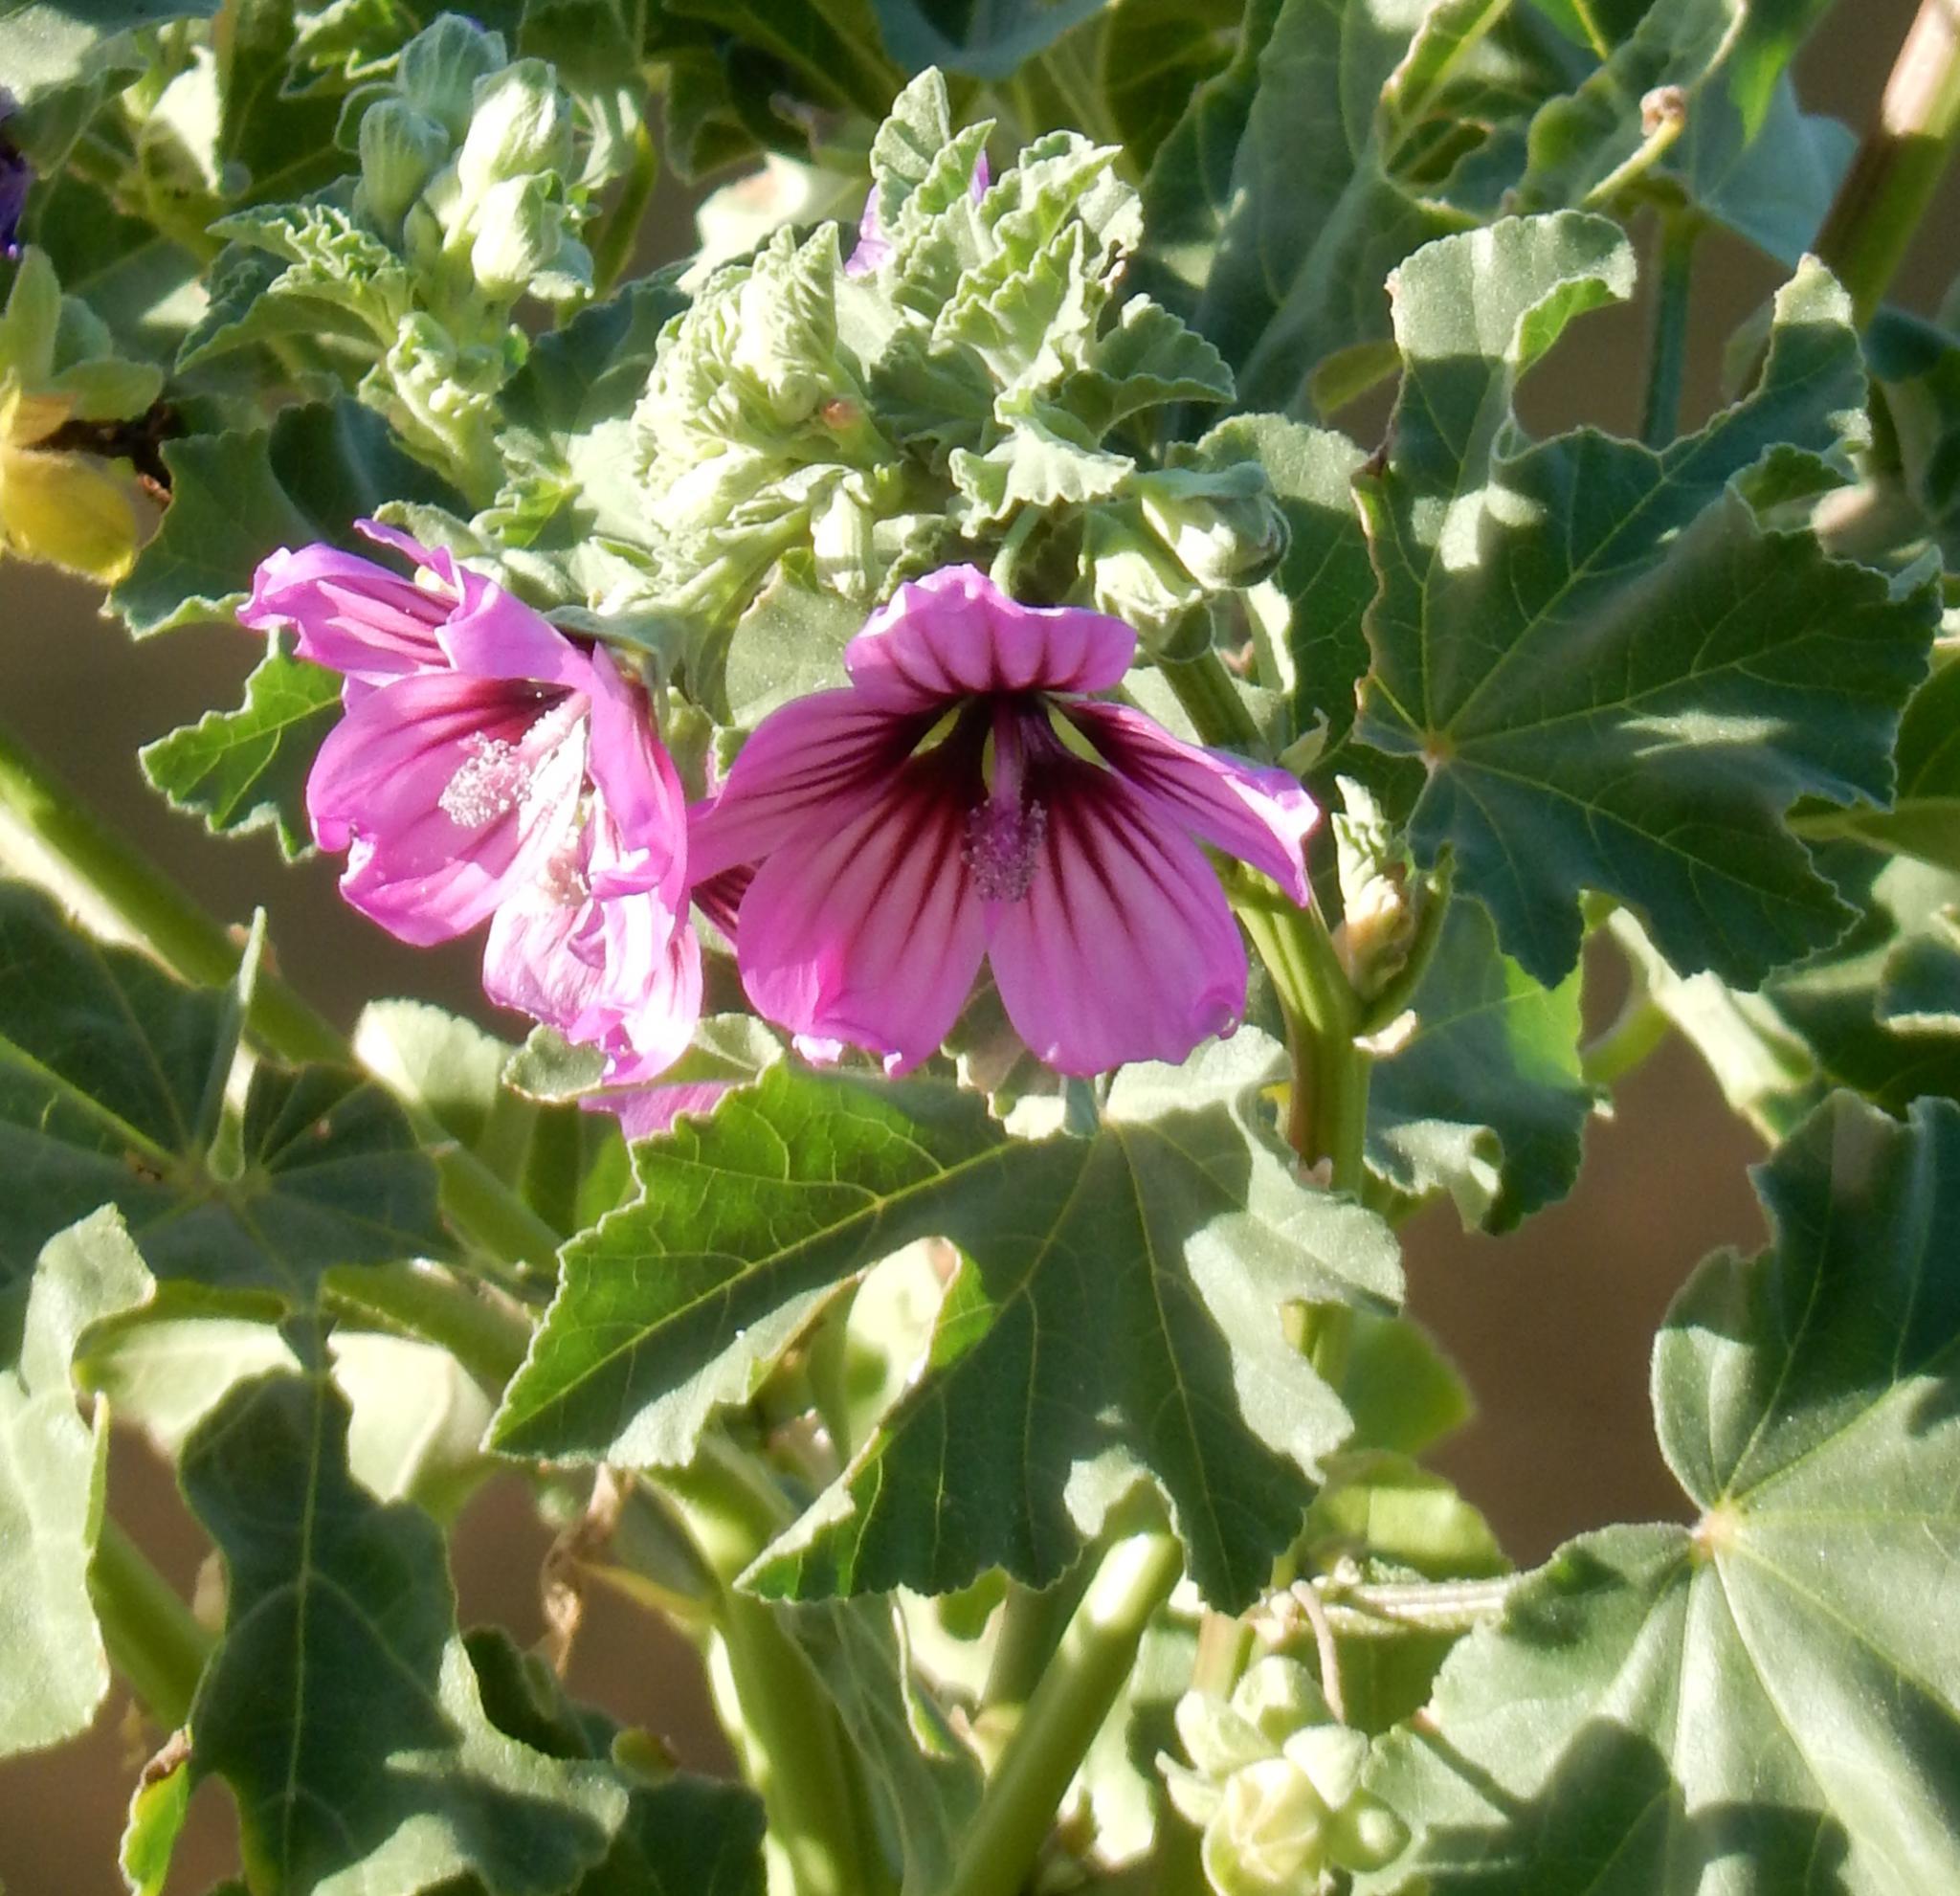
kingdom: Plantae
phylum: Tracheophyta
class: Magnoliopsida
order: Malvales
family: Malvaceae
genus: Malva
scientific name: Malva arborea
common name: Tree mallow
